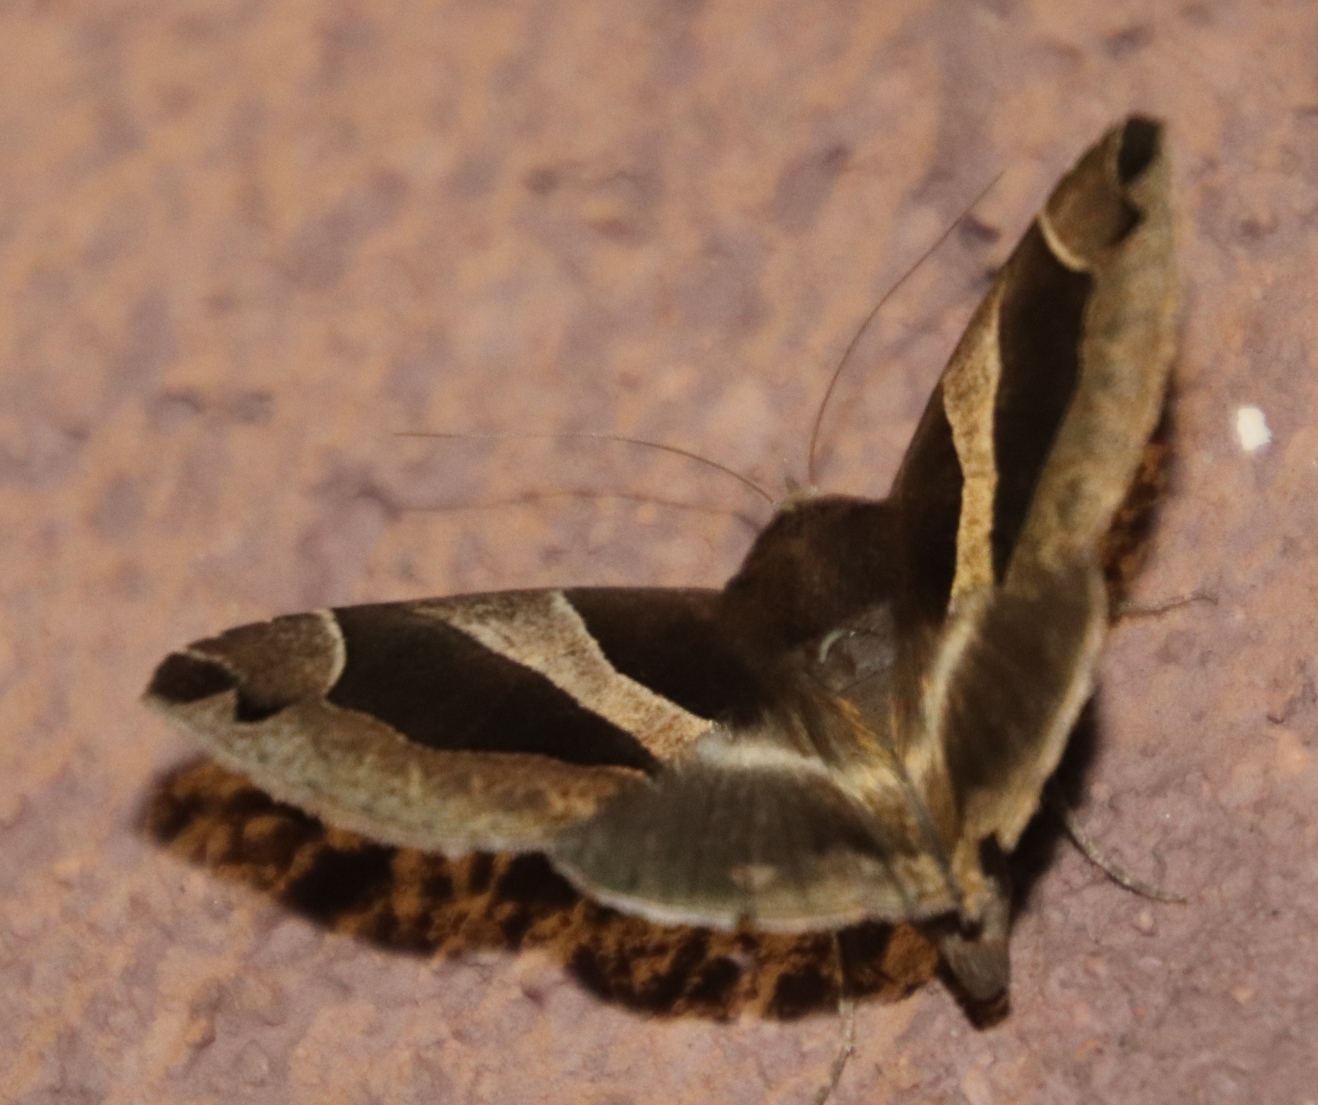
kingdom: Animalia
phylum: Arthropoda
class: Insecta
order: Lepidoptera
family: Erebidae
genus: Dysgonia
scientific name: Dysgonia torrida
